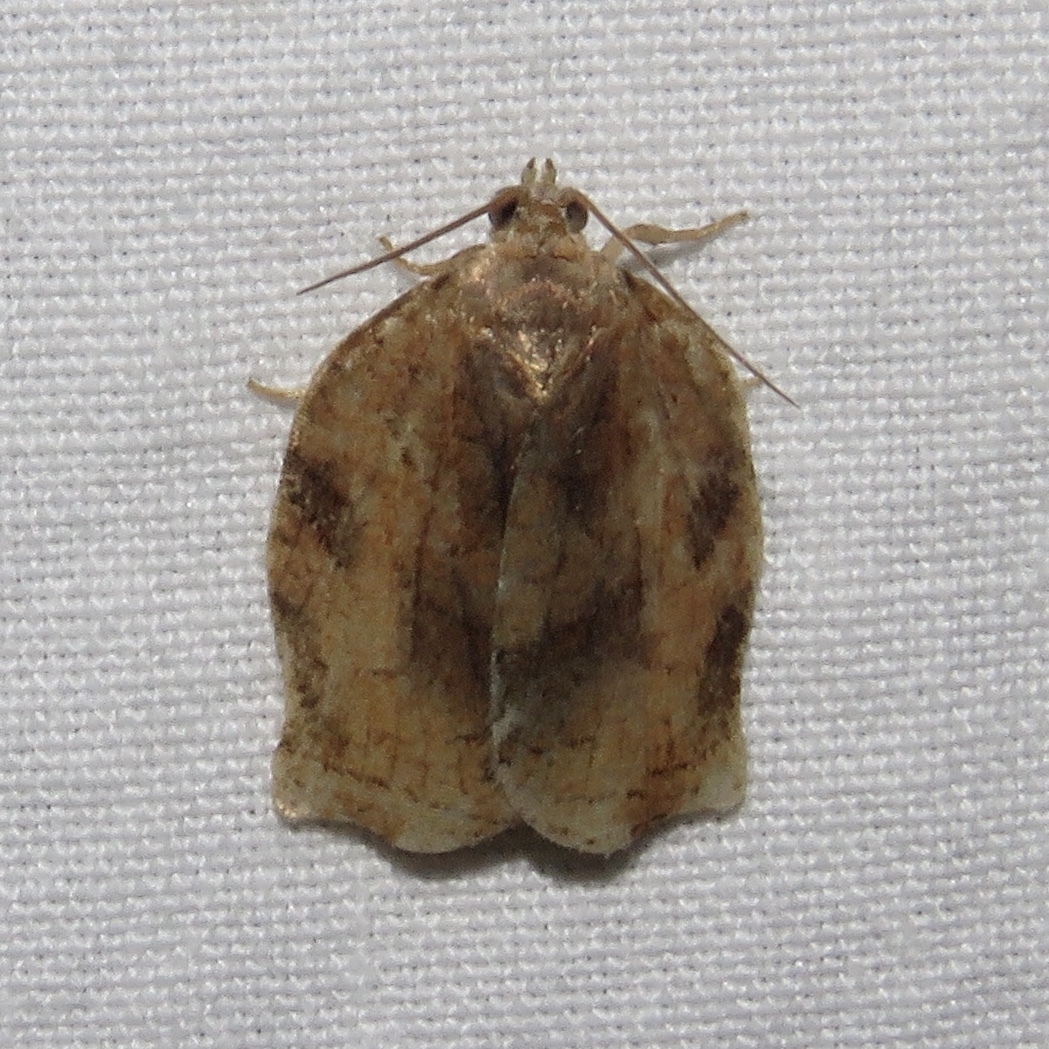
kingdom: Animalia
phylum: Arthropoda
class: Insecta
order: Lepidoptera
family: Tortricidae
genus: Archips
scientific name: Archips purpurana
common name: Omnivorous leafroller
